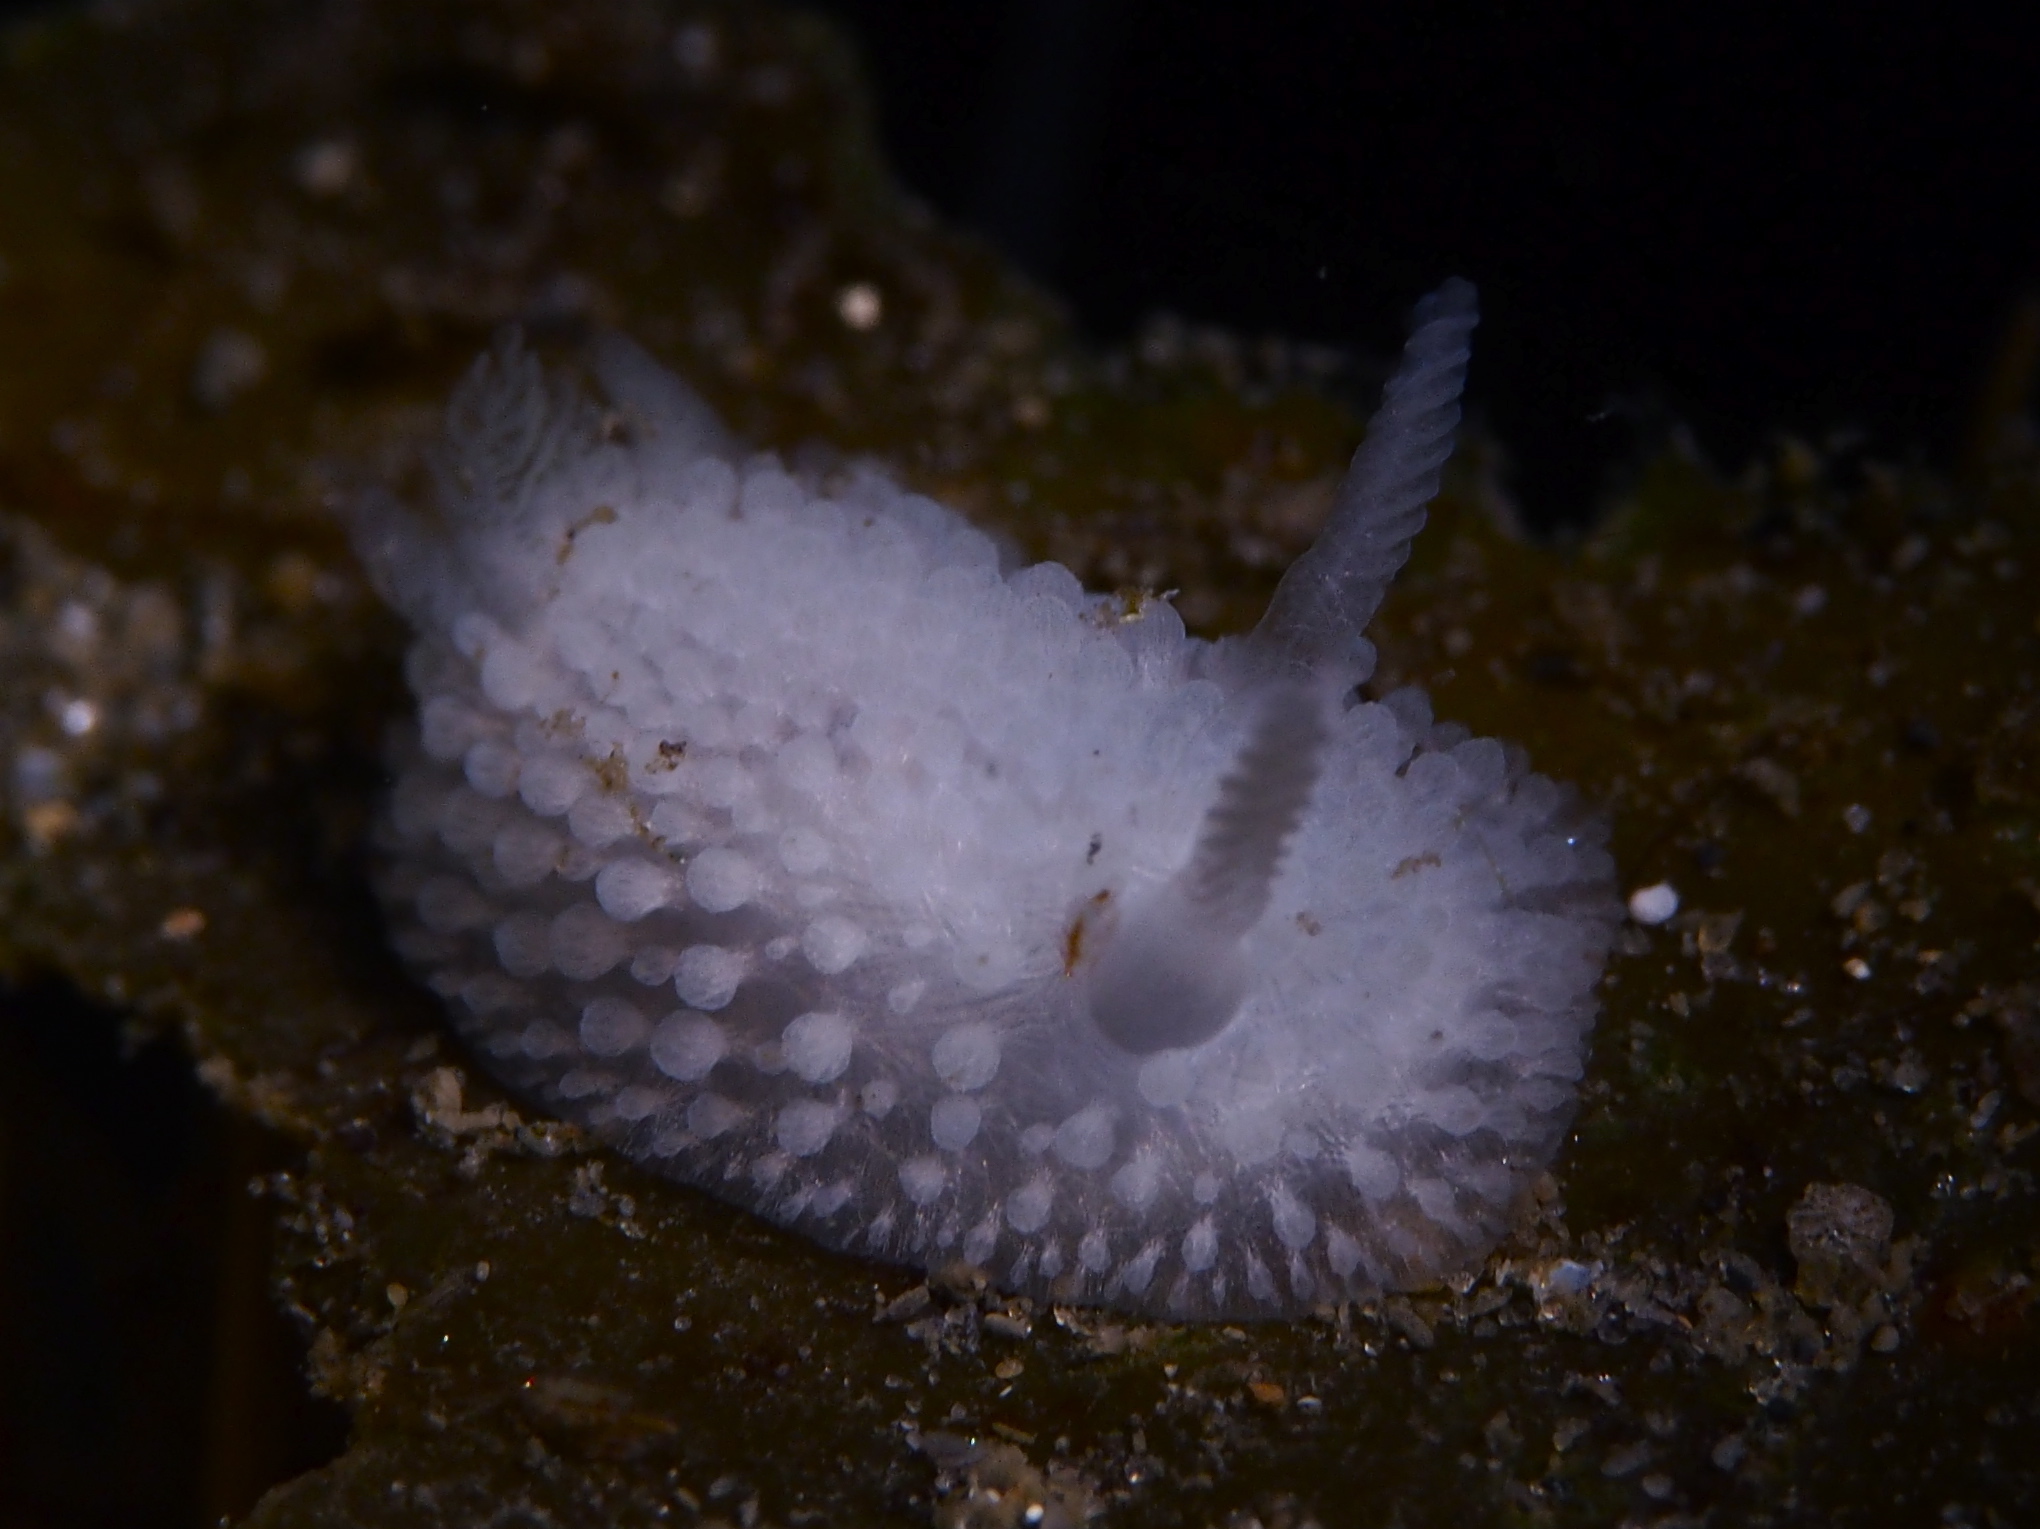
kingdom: Animalia
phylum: Mollusca
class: Gastropoda
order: Nudibranchia
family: Onchidorididae
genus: Onchidoris
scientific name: Onchidoris muricata
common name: Rough doris
